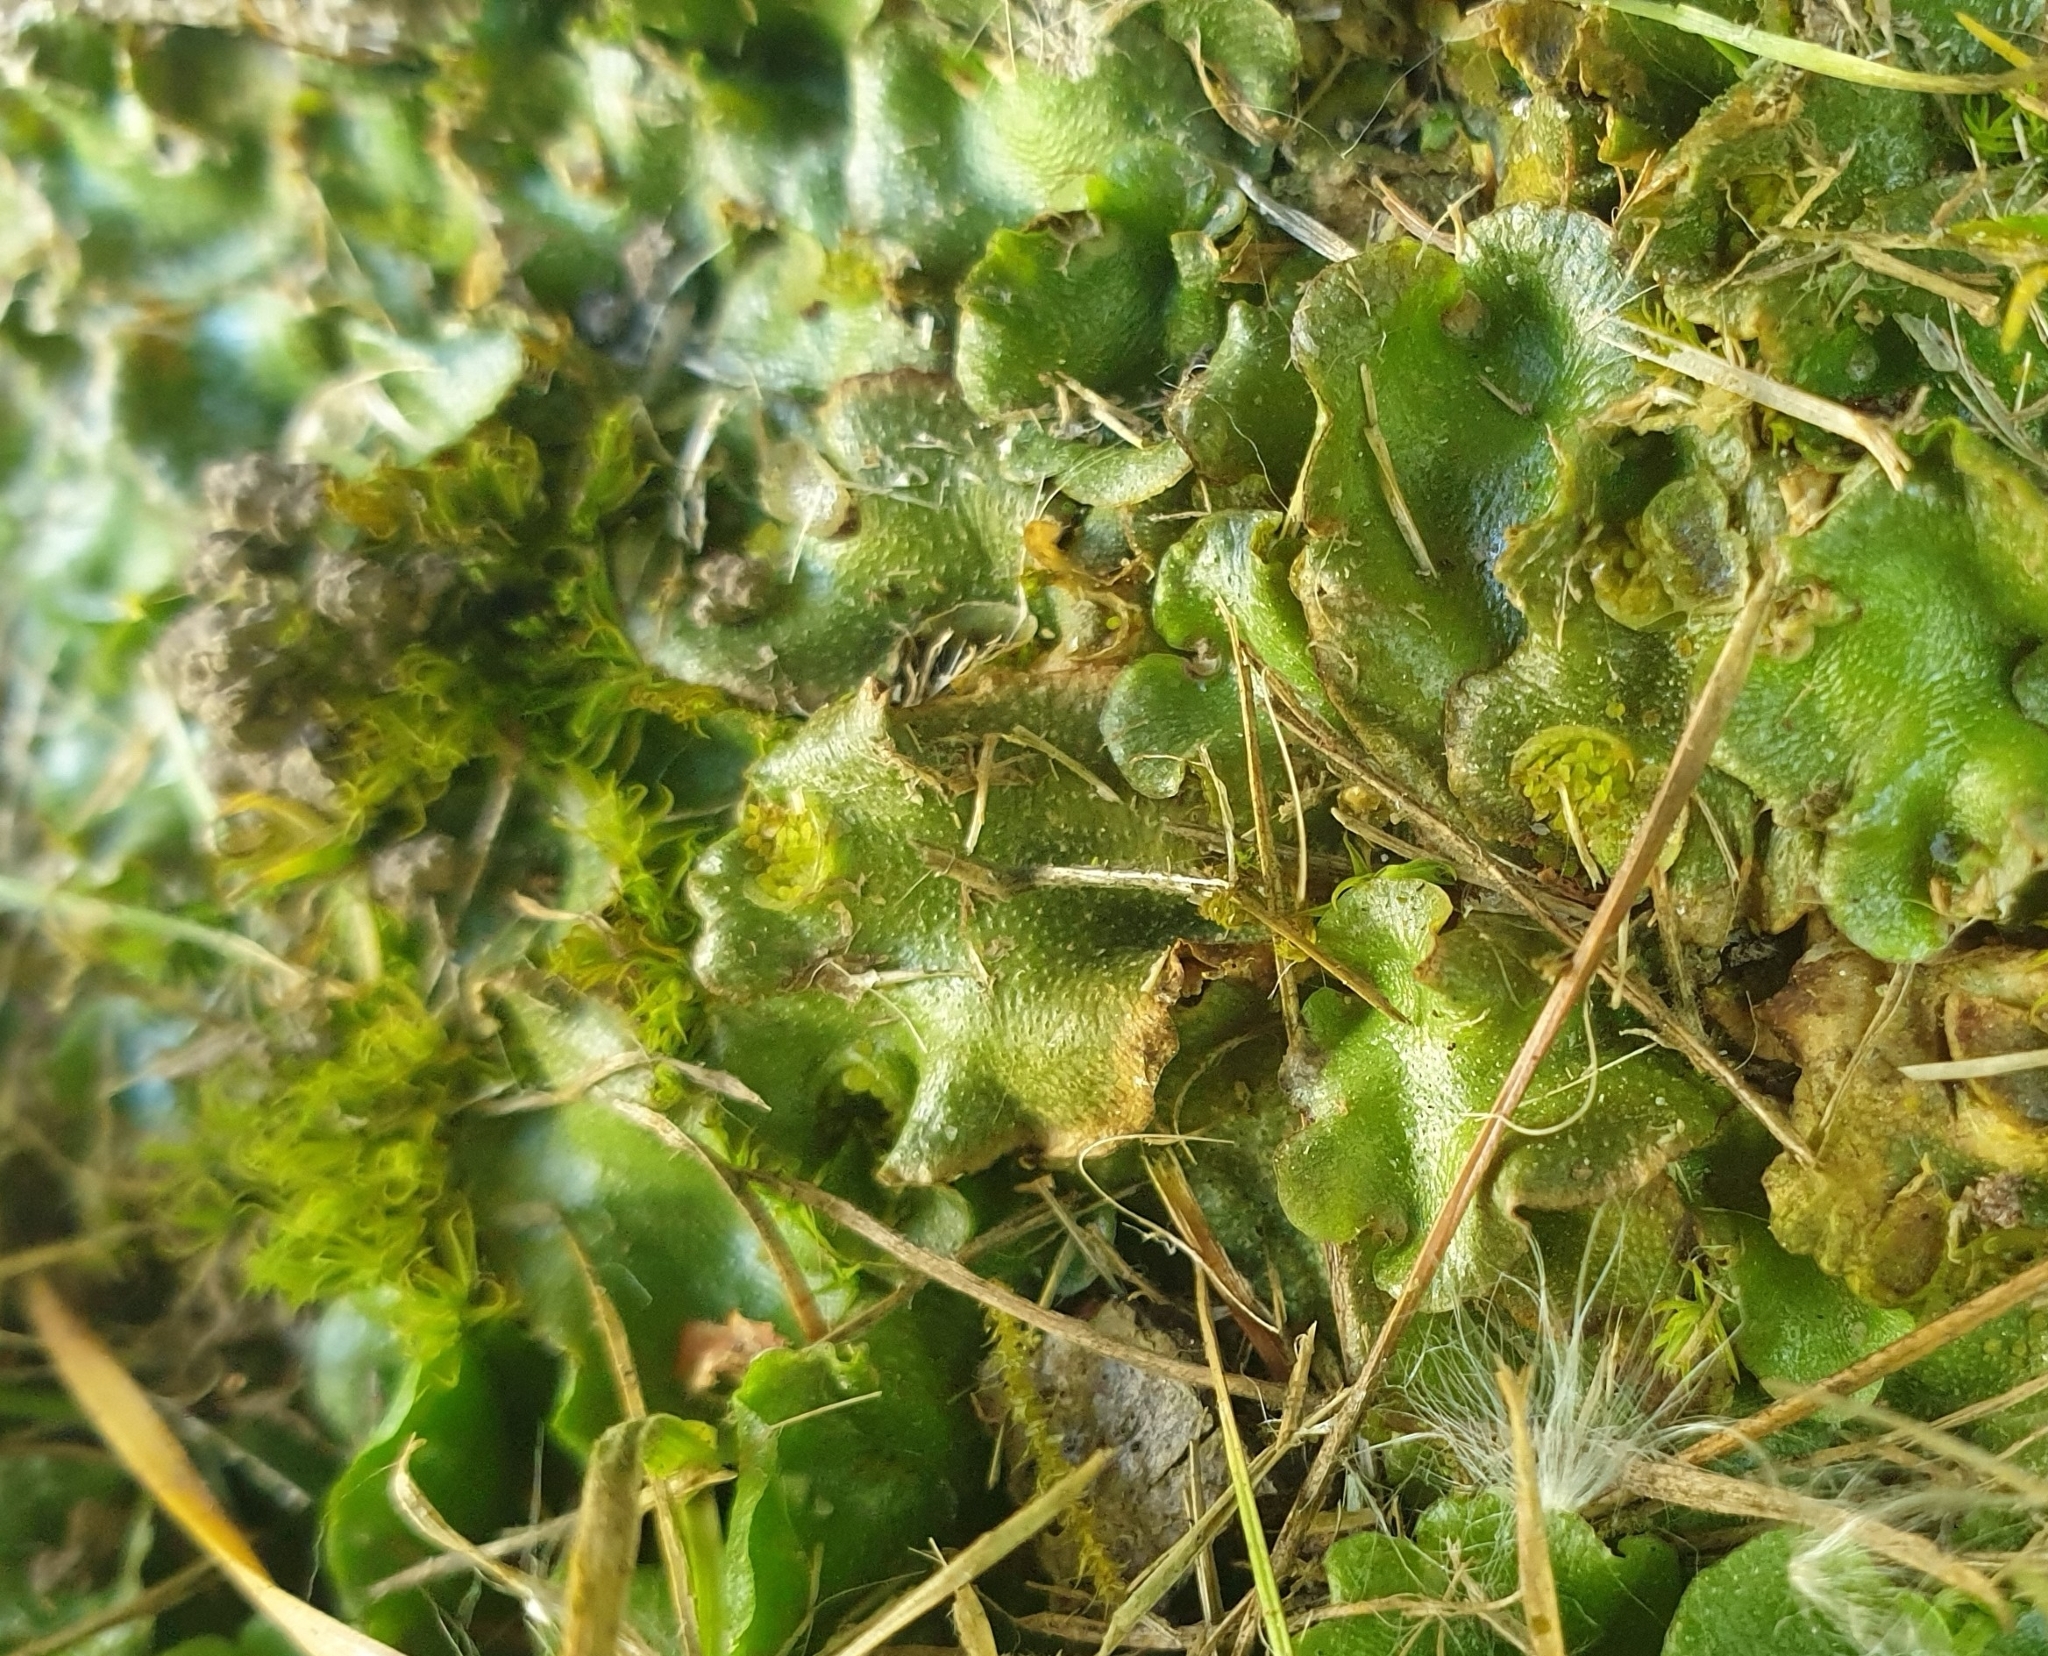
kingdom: Plantae
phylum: Marchantiophyta
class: Marchantiopsida
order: Lunulariales
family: Lunulariaceae
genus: Lunularia
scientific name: Lunularia cruciata
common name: Crescent-cup liverwort
